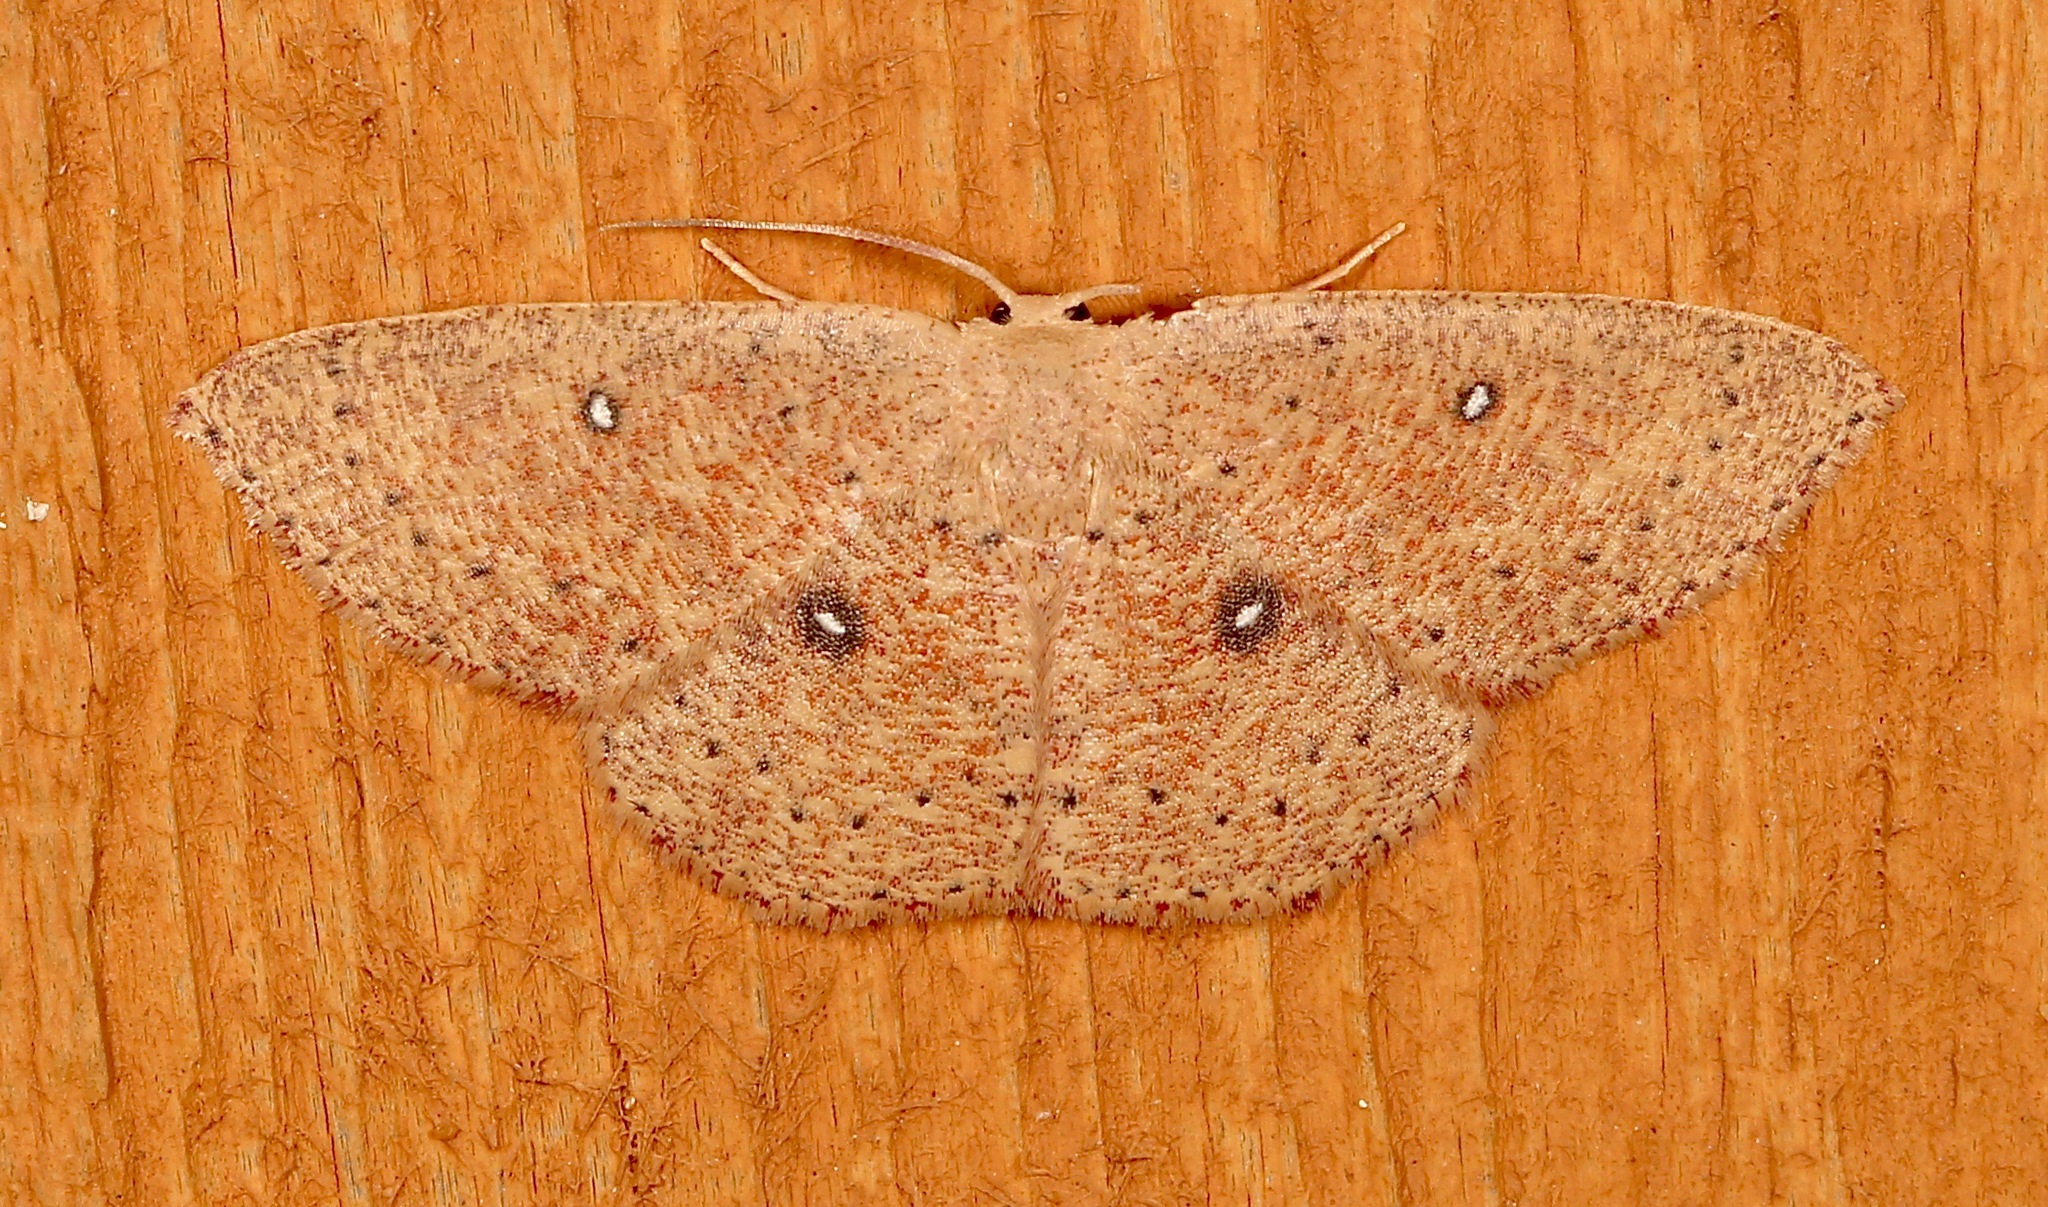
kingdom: Animalia
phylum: Arthropoda
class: Insecta
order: Lepidoptera
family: Geometridae
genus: Cyclophora
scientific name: Cyclophora packardi
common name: Packard's wave
